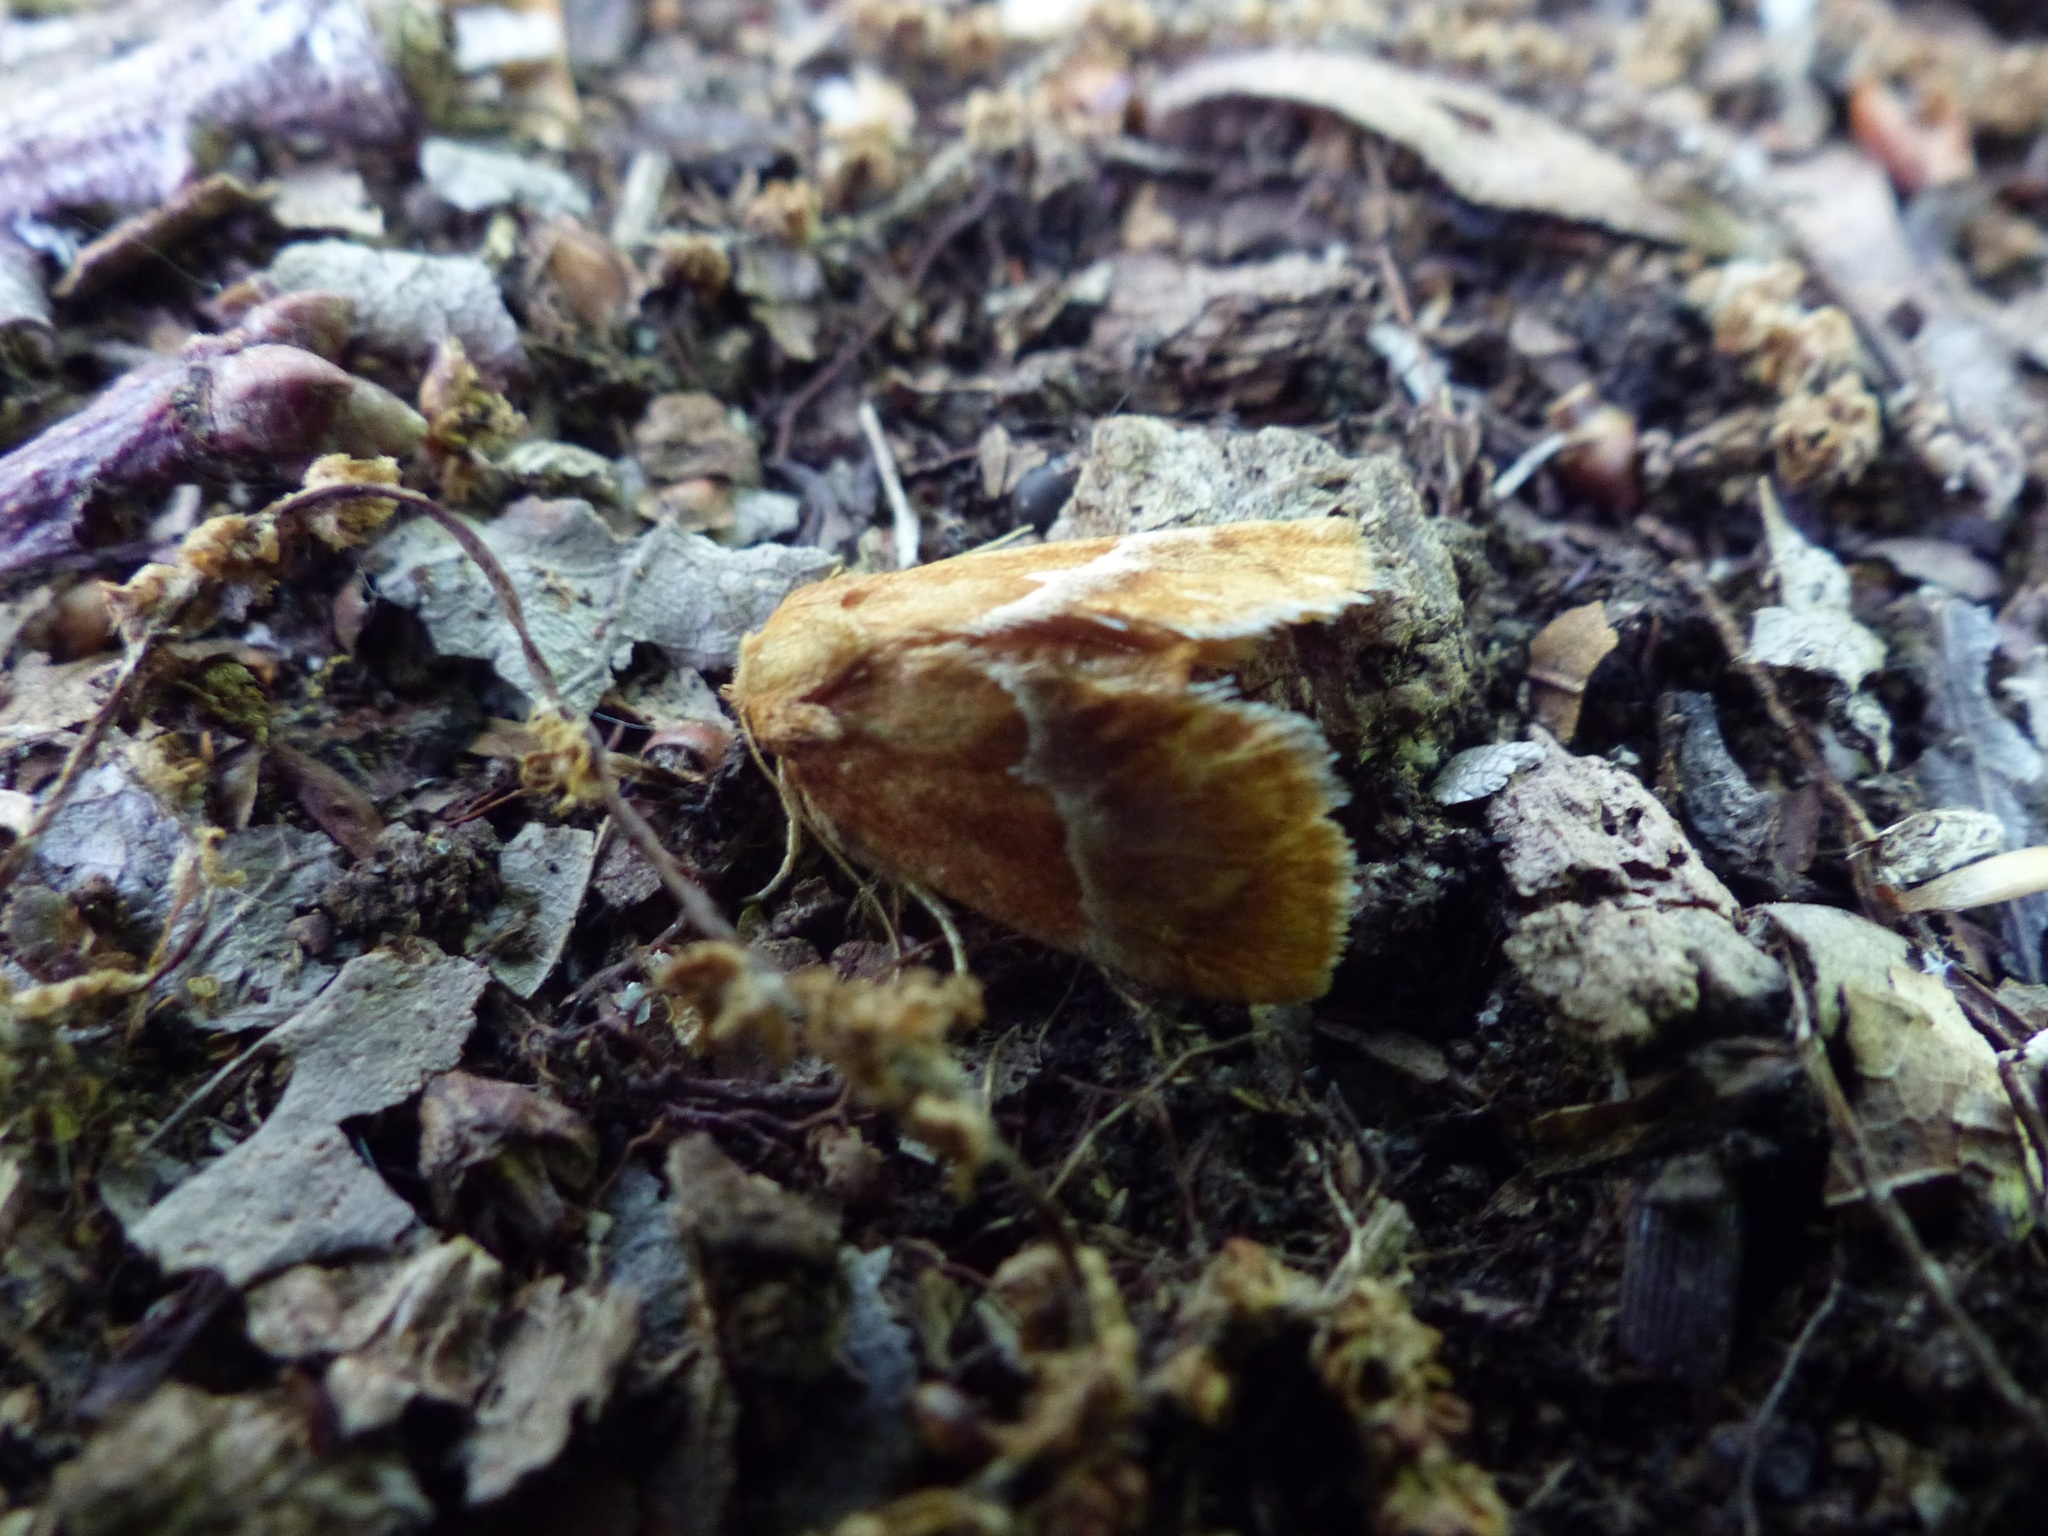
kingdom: Animalia
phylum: Arthropoda
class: Insecta
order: Lepidoptera
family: Limacodidae
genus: Lithacodes
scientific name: Lithacodes fasciola
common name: Yellow-shouldered slug moth
